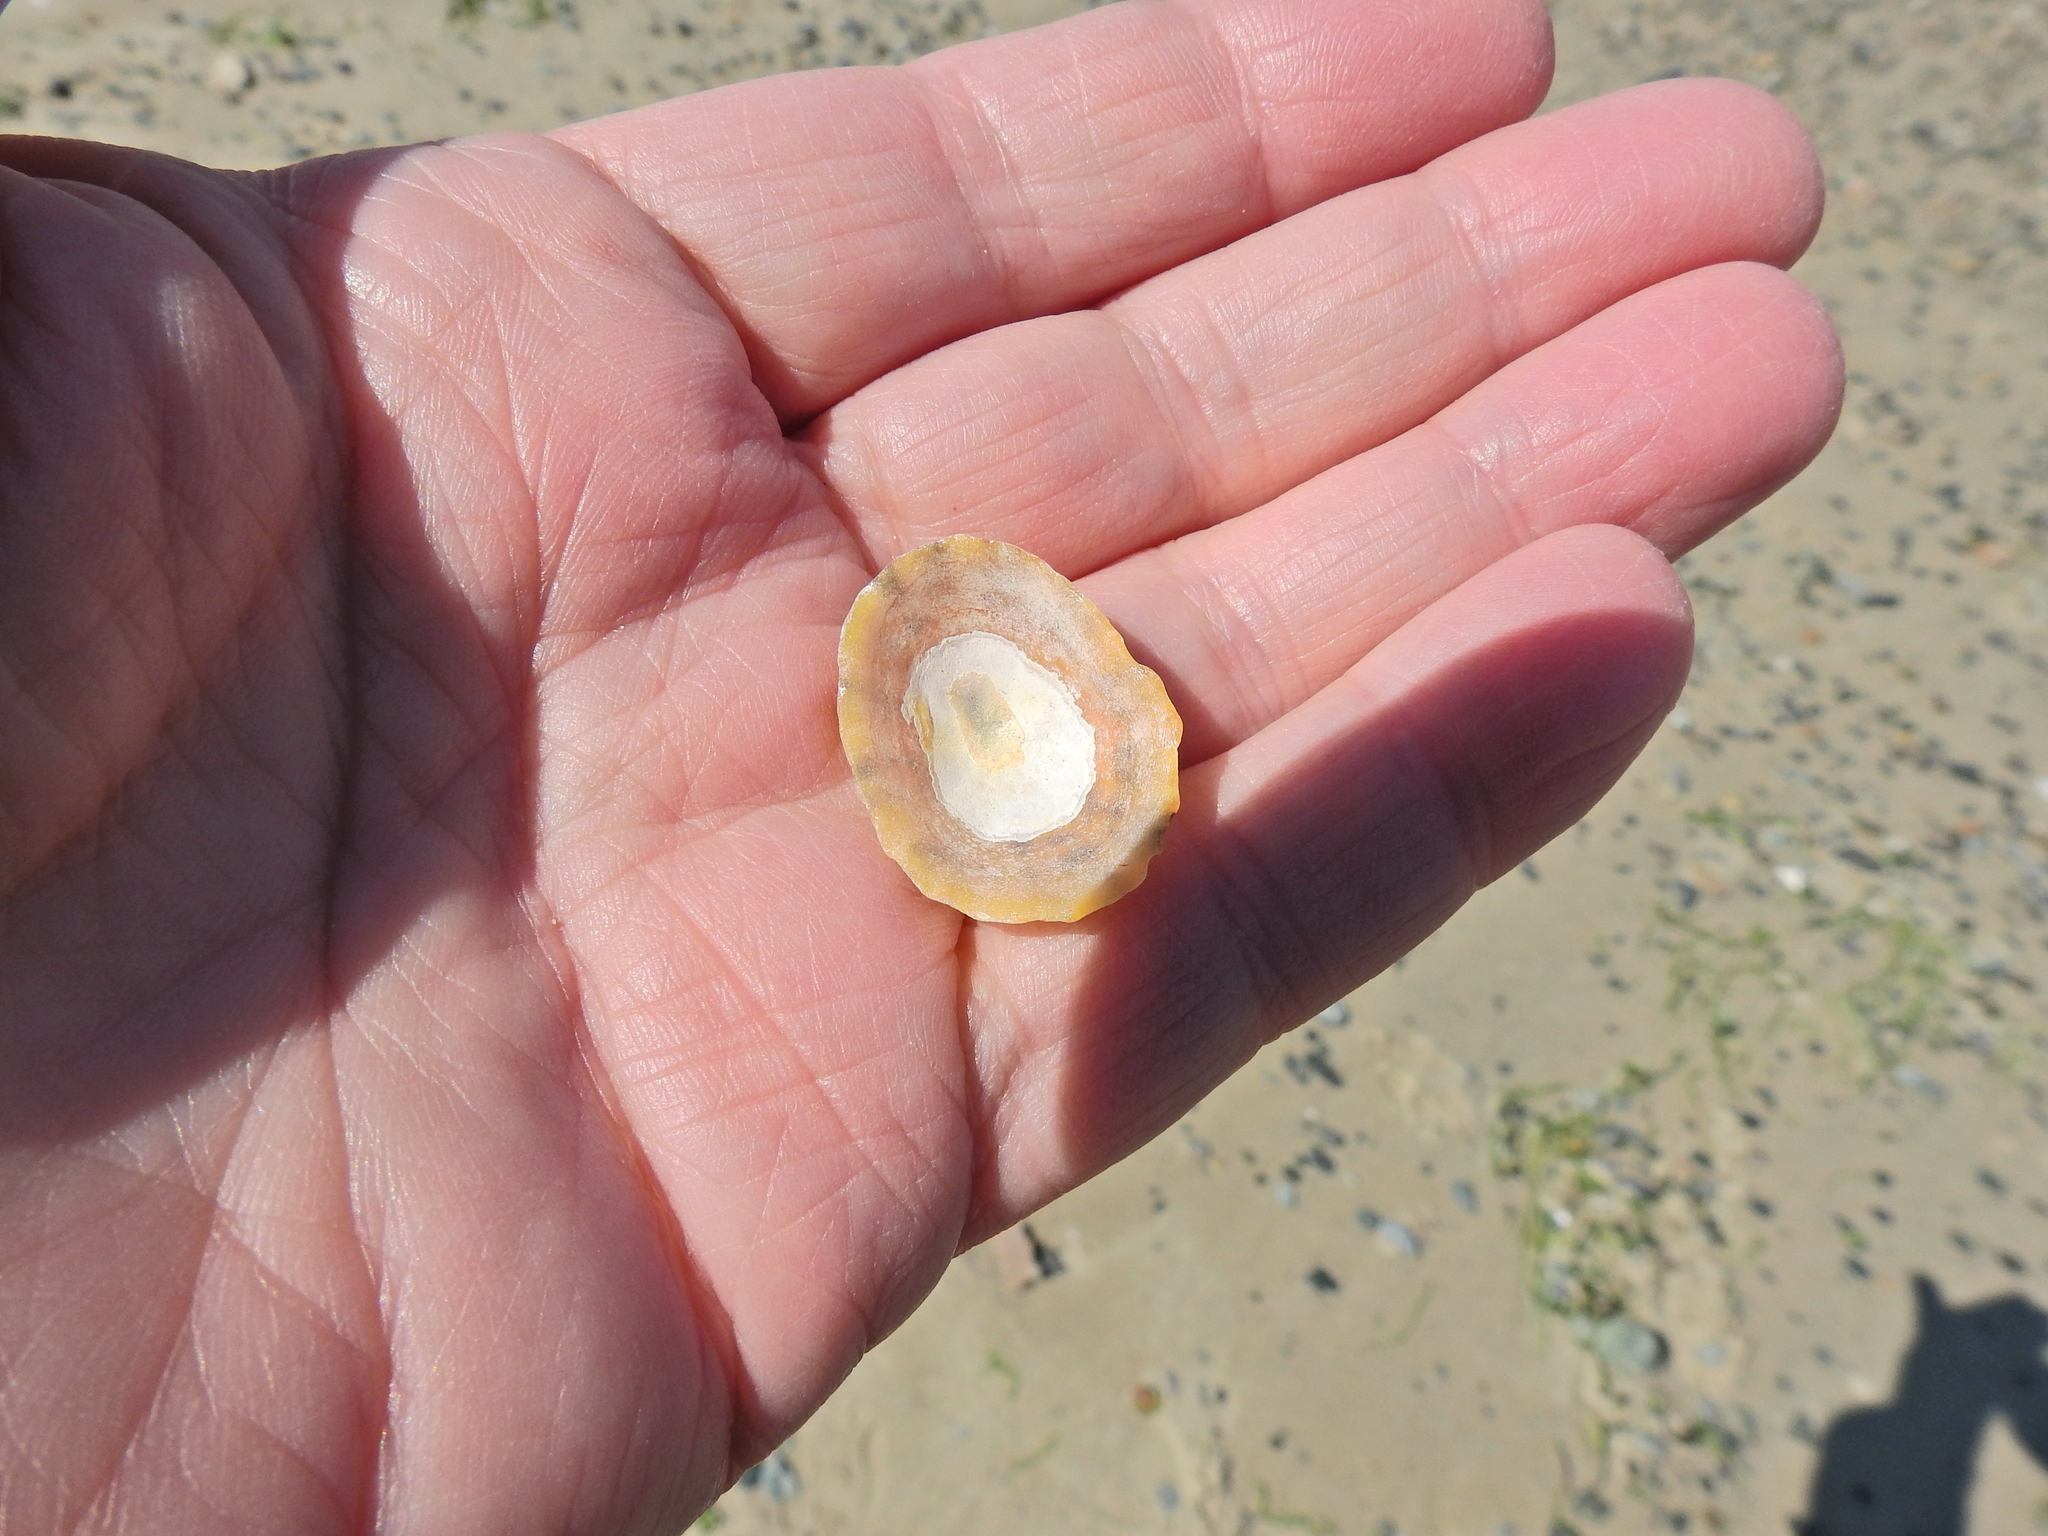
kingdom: Animalia
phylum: Mollusca
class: Gastropoda
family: Patellidae
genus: Patella
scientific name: Patella vulgata
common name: Common limpet
